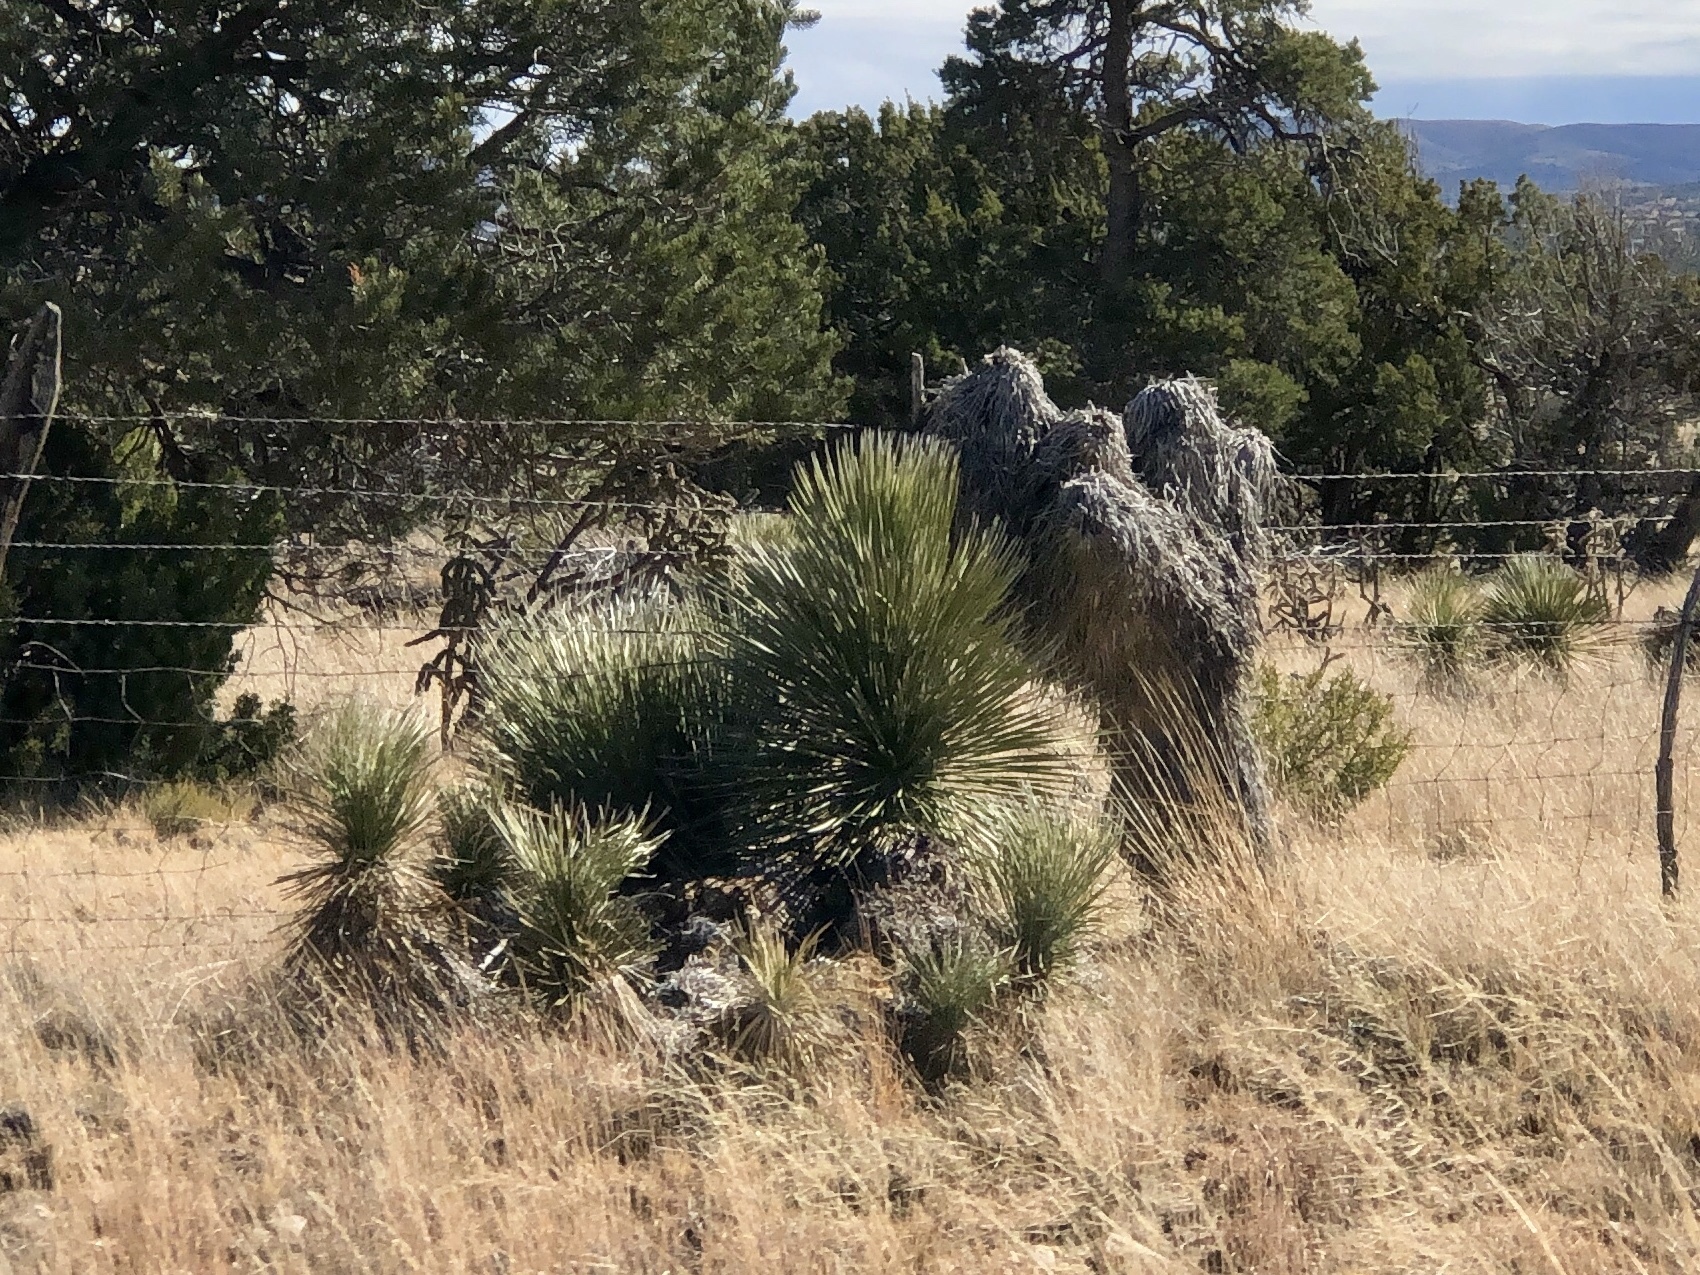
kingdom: Plantae
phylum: Tracheophyta
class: Liliopsida
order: Asparagales
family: Asparagaceae
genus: Yucca
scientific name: Yucca elata
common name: Palmella
